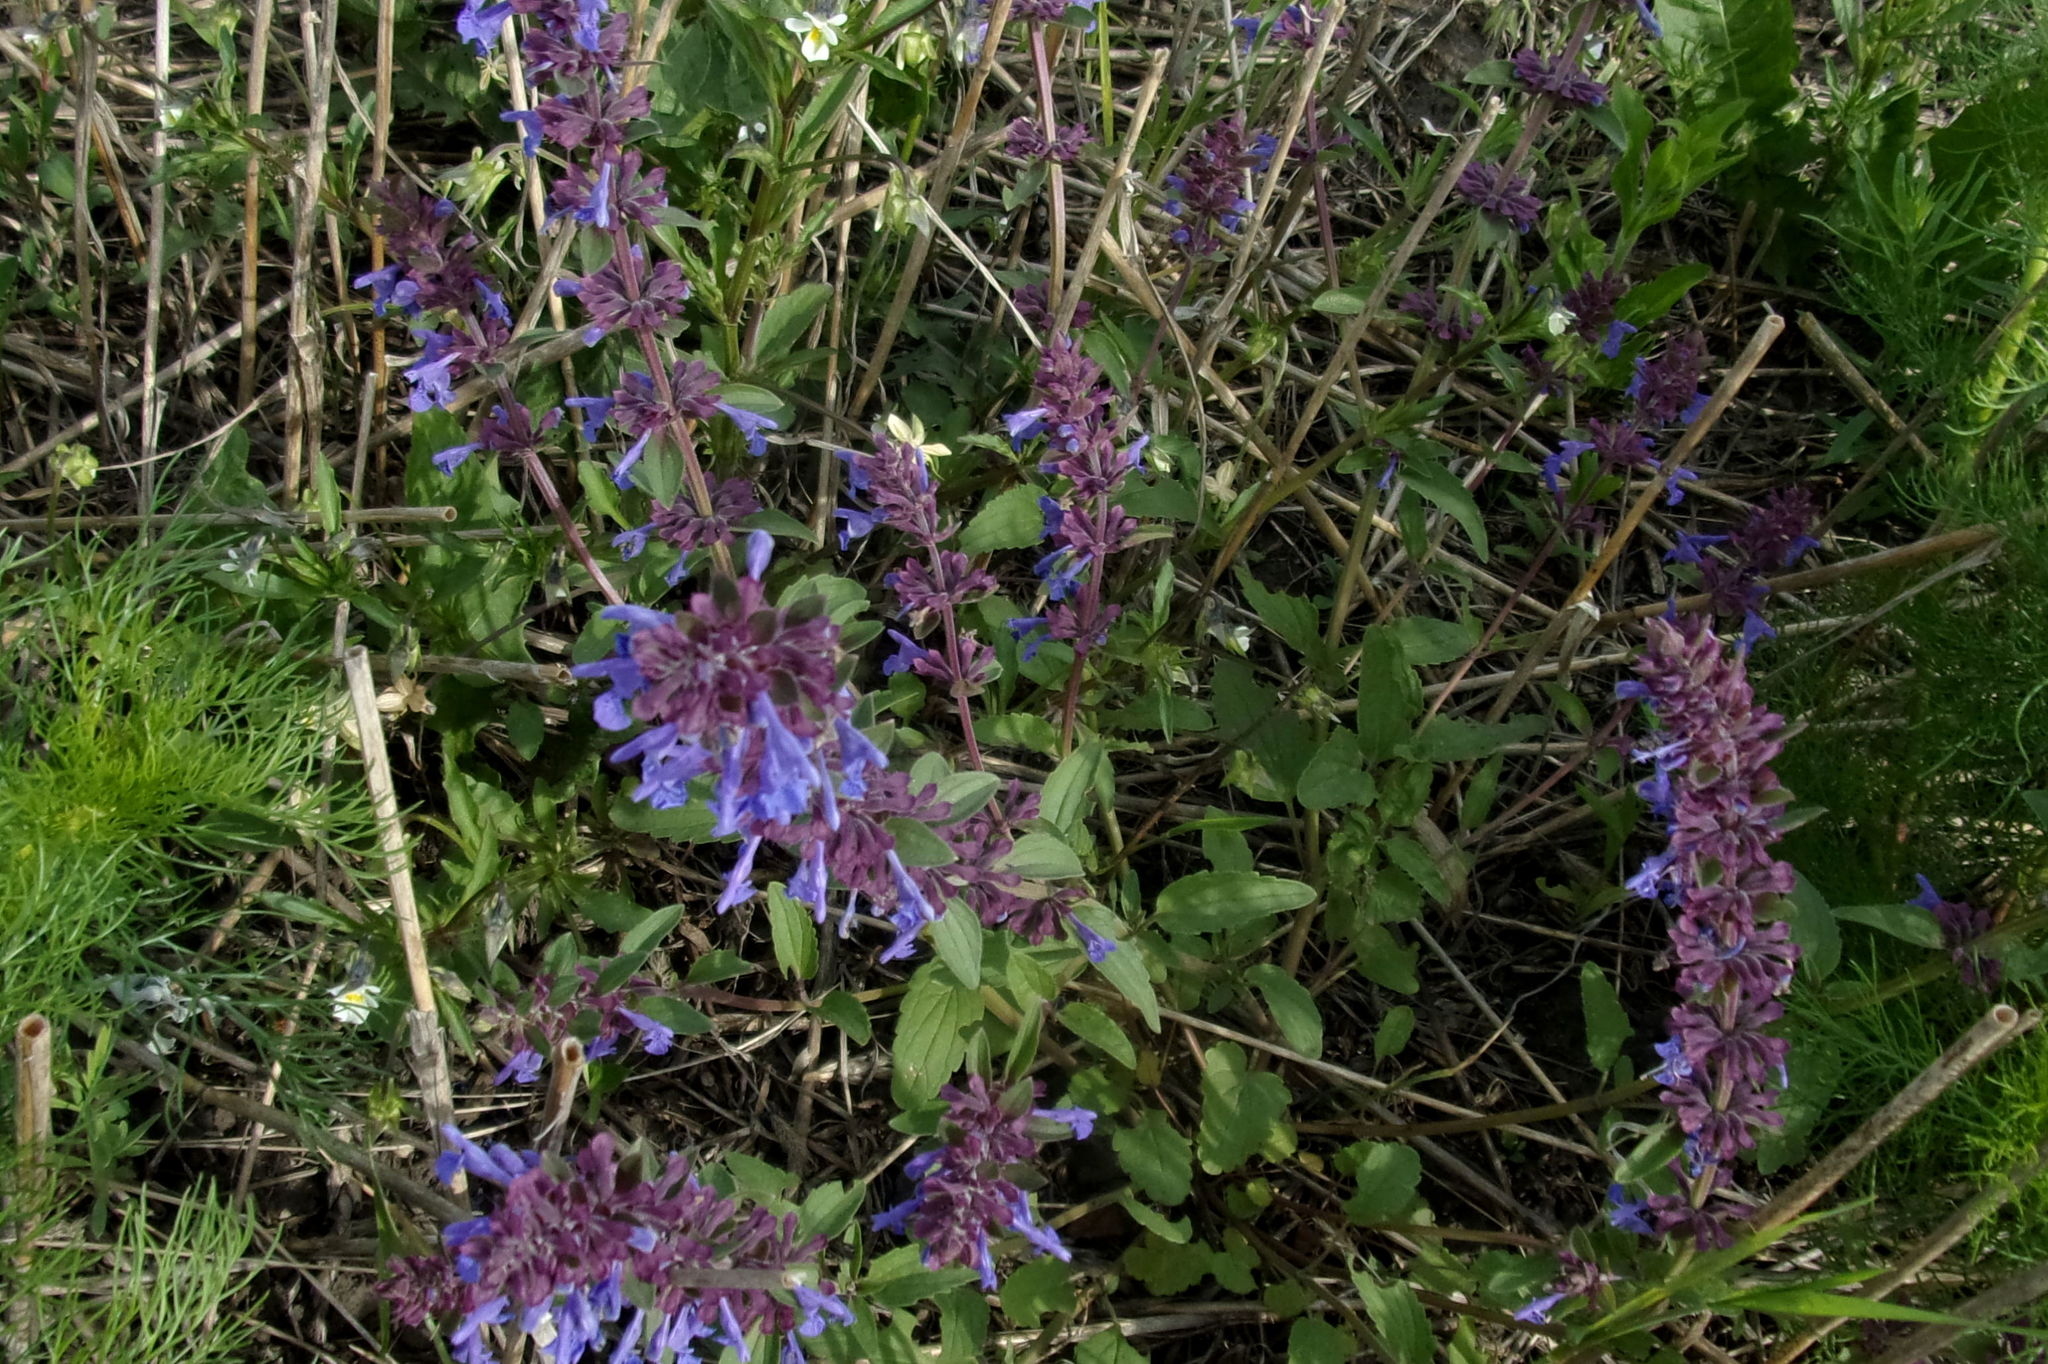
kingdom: Plantae
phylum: Tracheophyta
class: Magnoliopsida
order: Lamiales
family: Lamiaceae
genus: Dracocephalum
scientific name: Dracocephalum nutans
